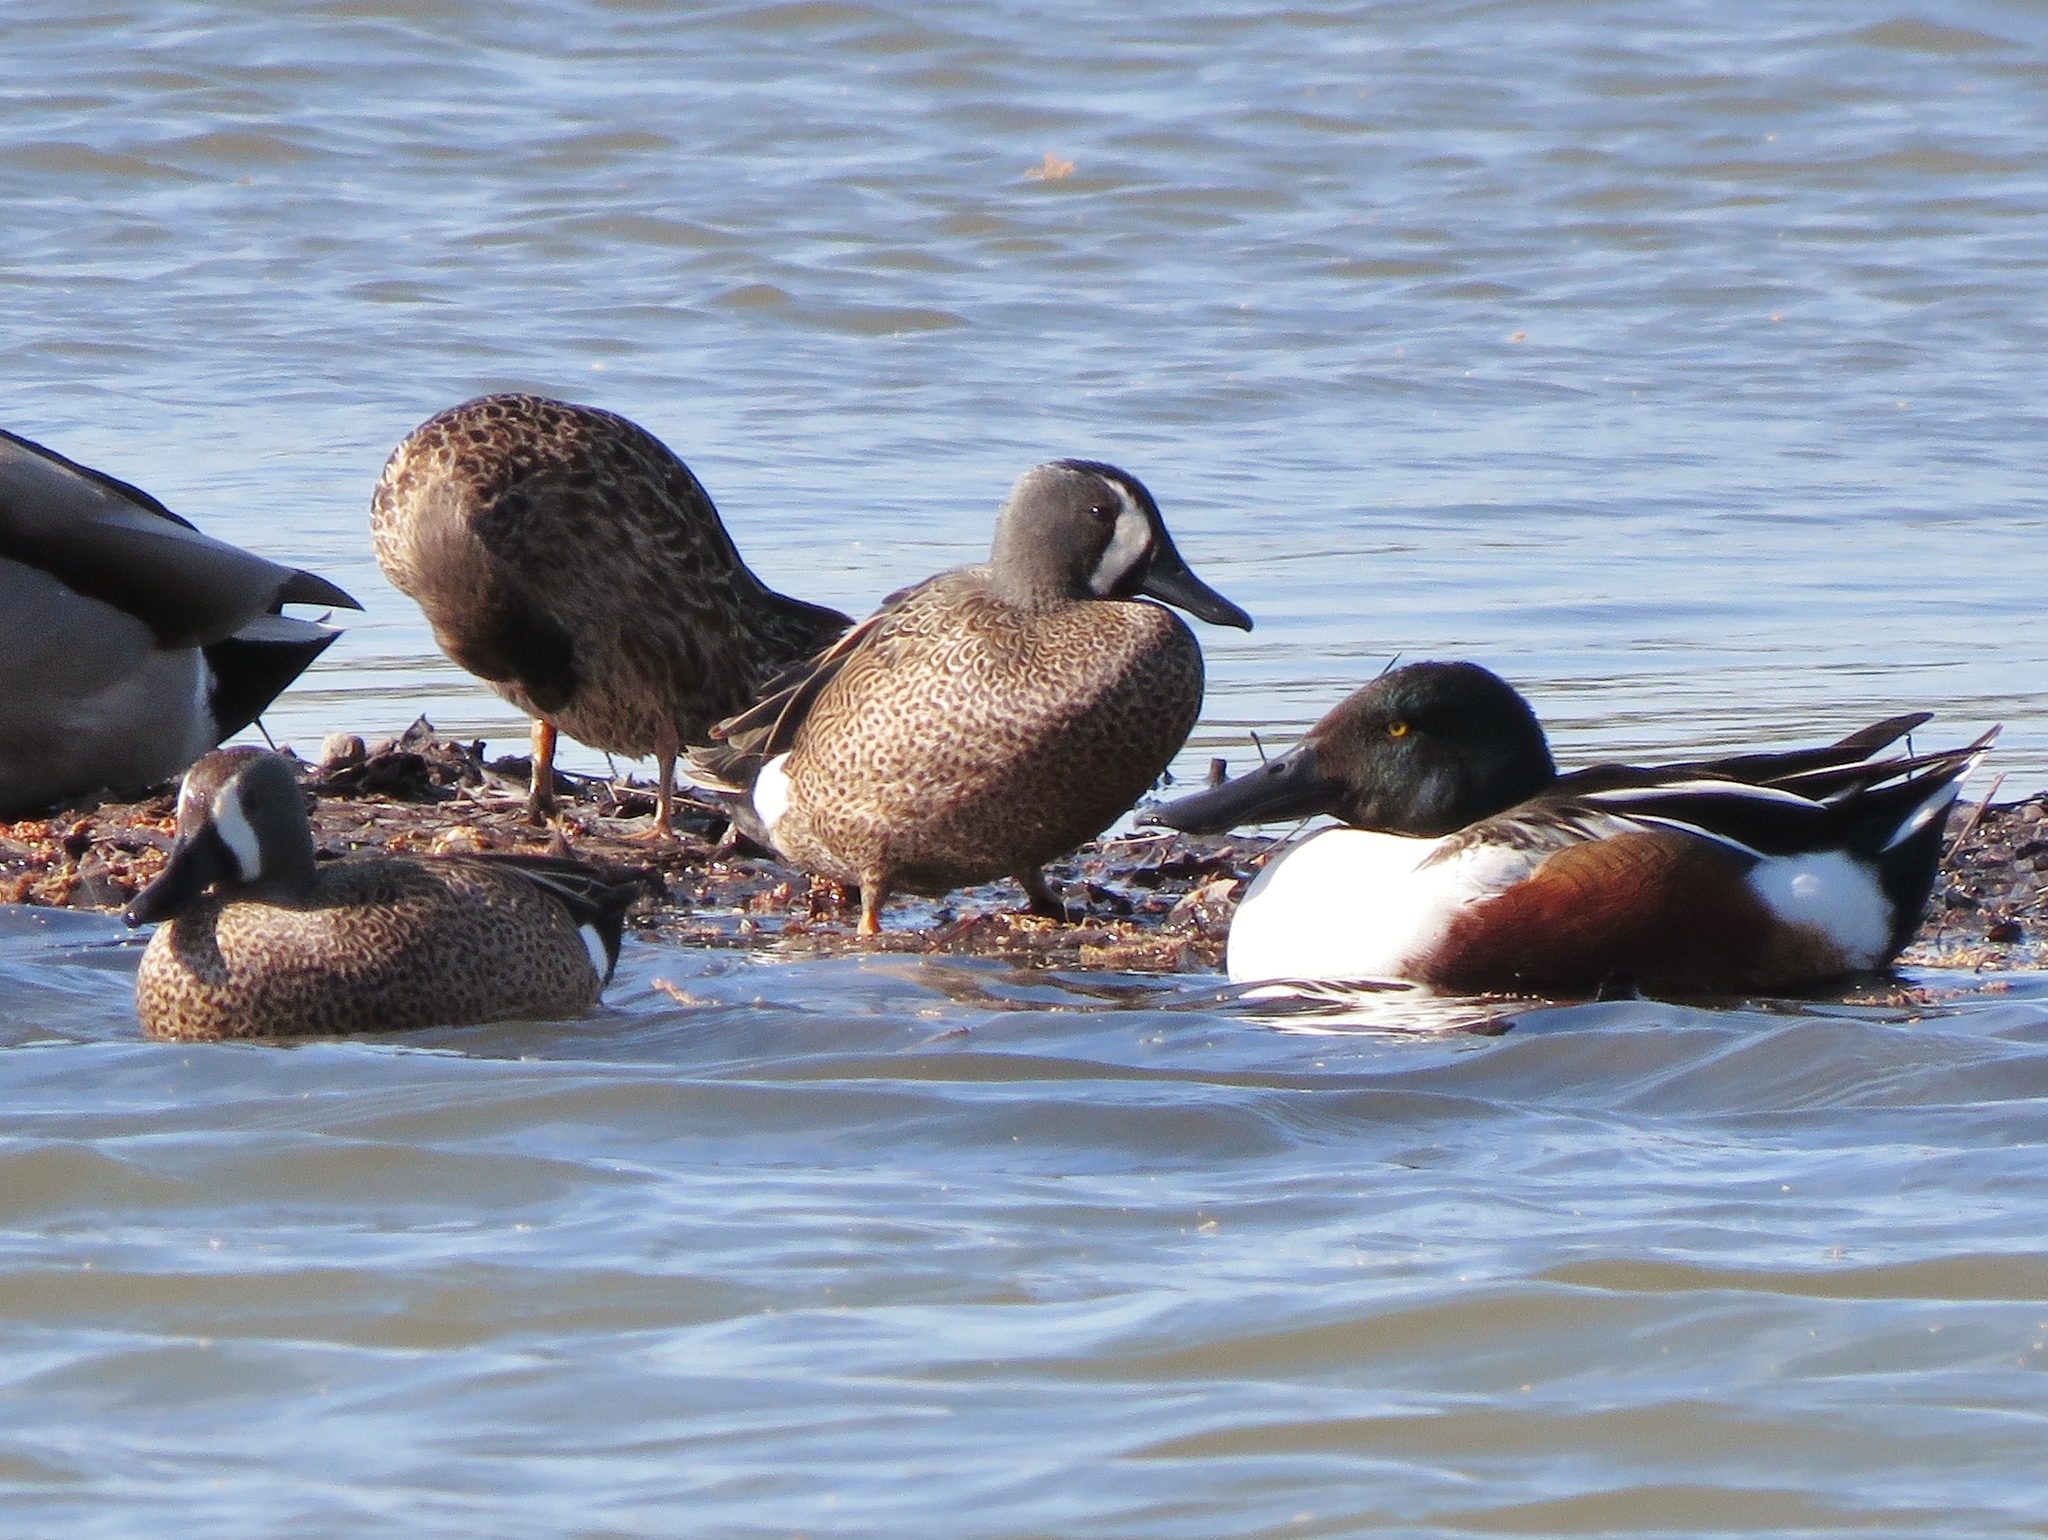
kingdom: Animalia
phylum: Chordata
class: Aves
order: Anseriformes
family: Anatidae
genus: Spatula
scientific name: Spatula clypeata
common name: Northern shoveler
